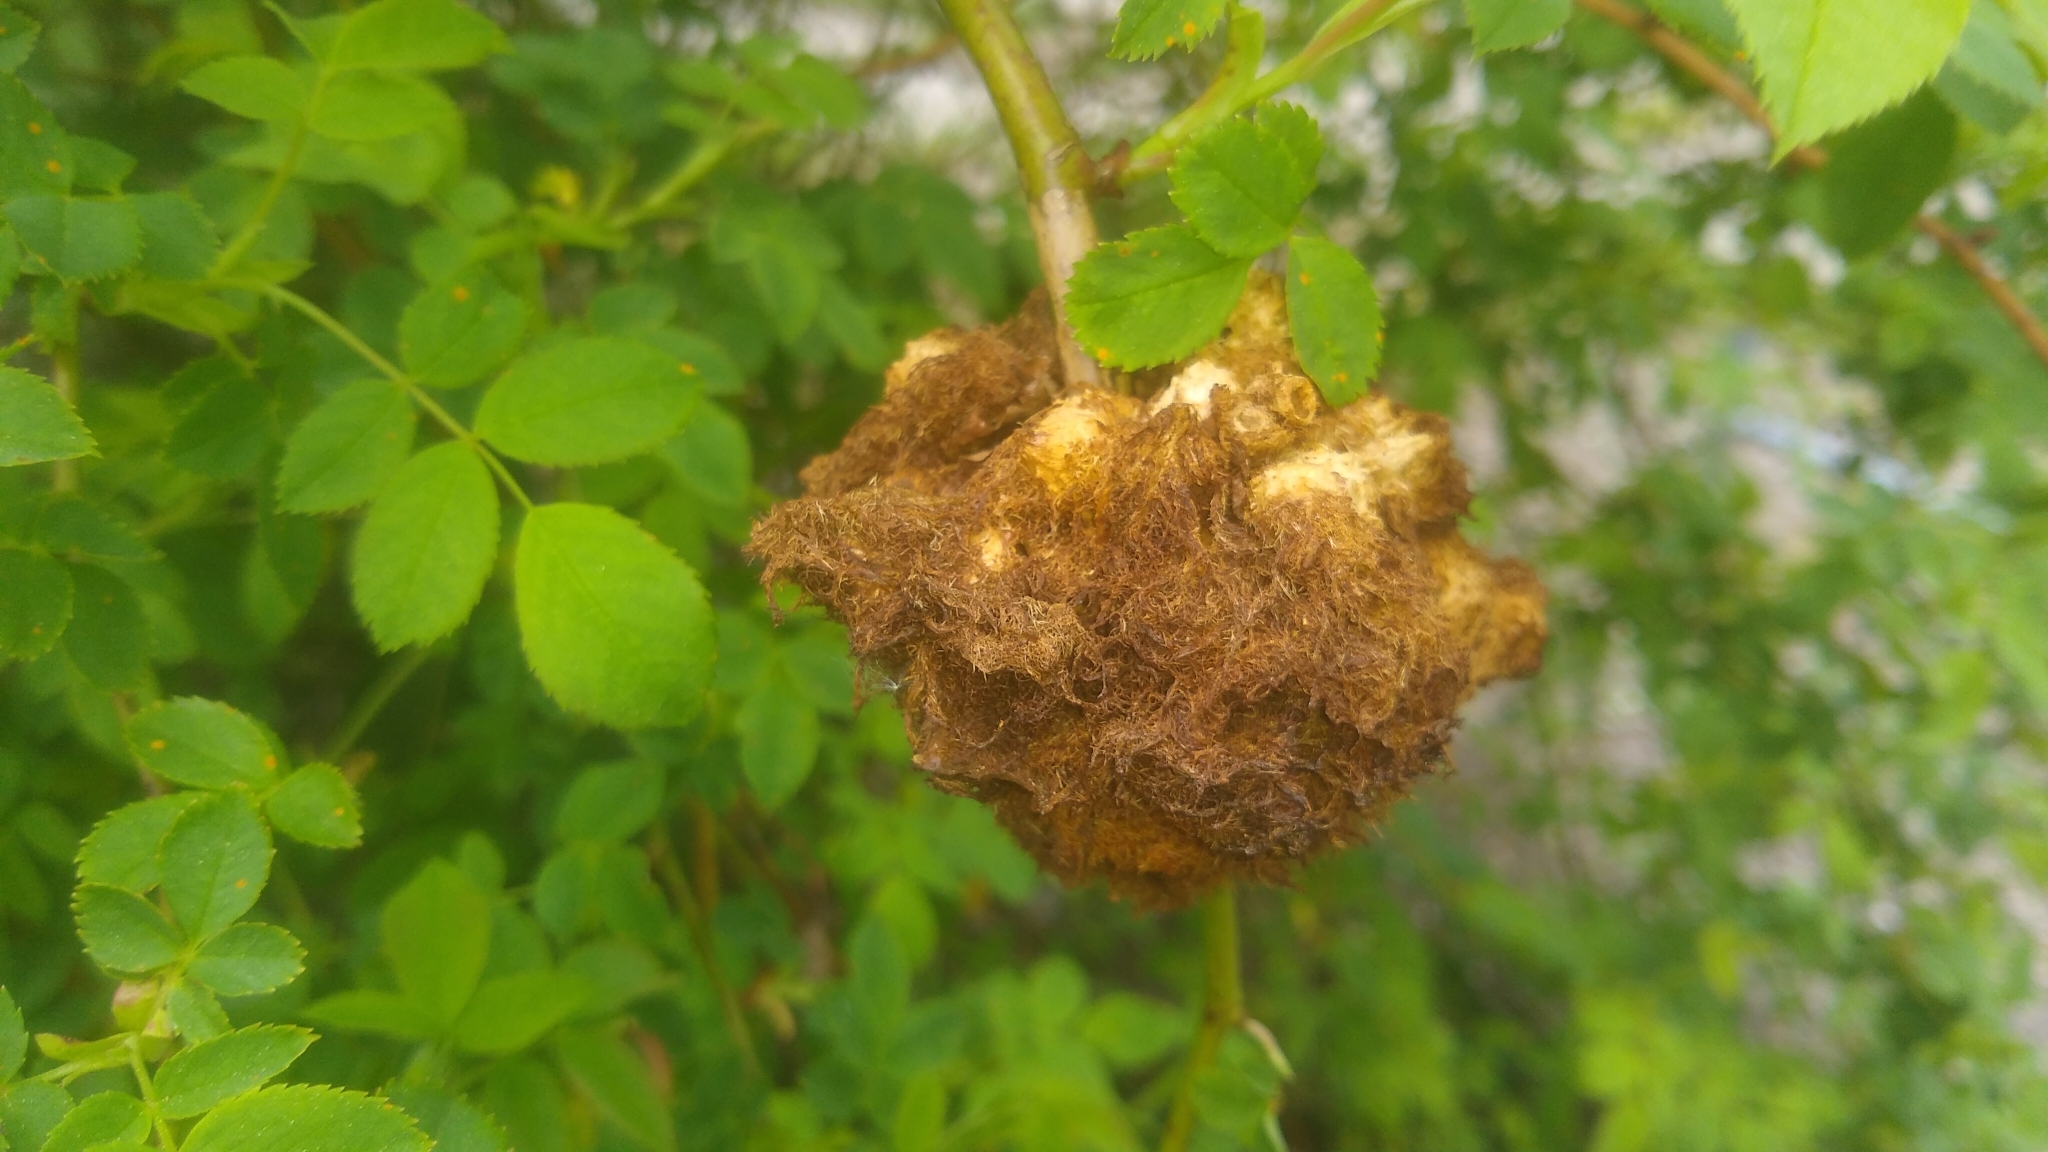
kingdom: Animalia
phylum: Arthropoda
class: Insecta
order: Hymenoptera
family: Cynipidae
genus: Diplolepis
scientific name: Diplolepis rosae
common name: Bedeguar gall
